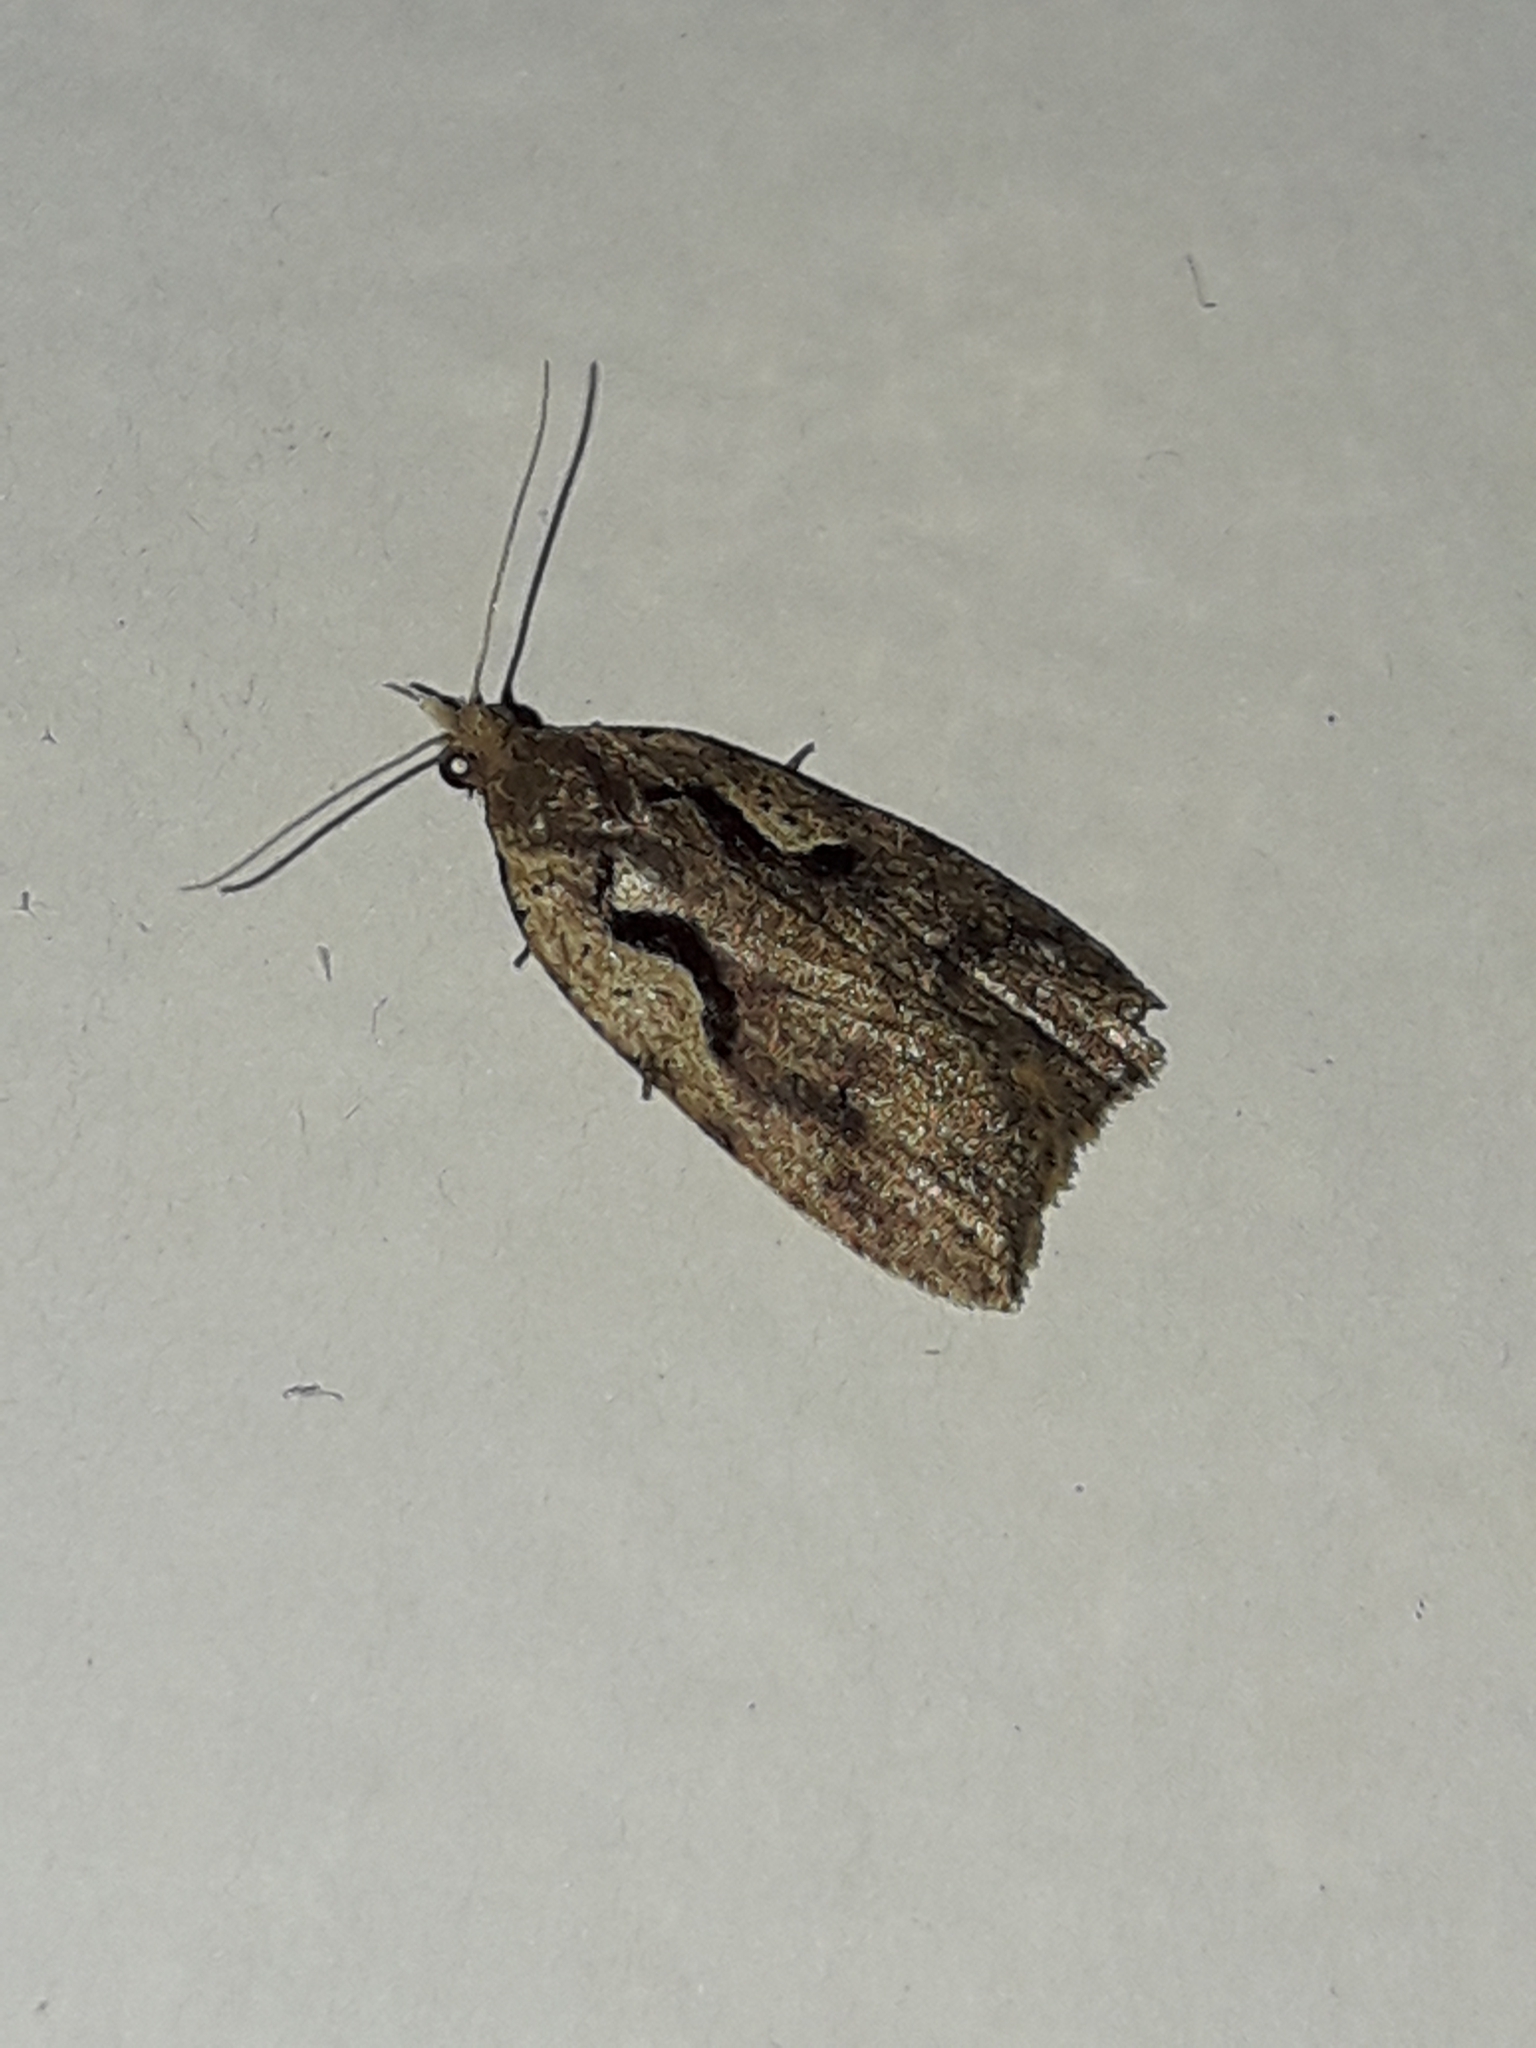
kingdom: Animalia
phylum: Arthropoda
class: Insecta
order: Lepidoptera
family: Tortricidae
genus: Cnephasia
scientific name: Cnephasia jactatana
